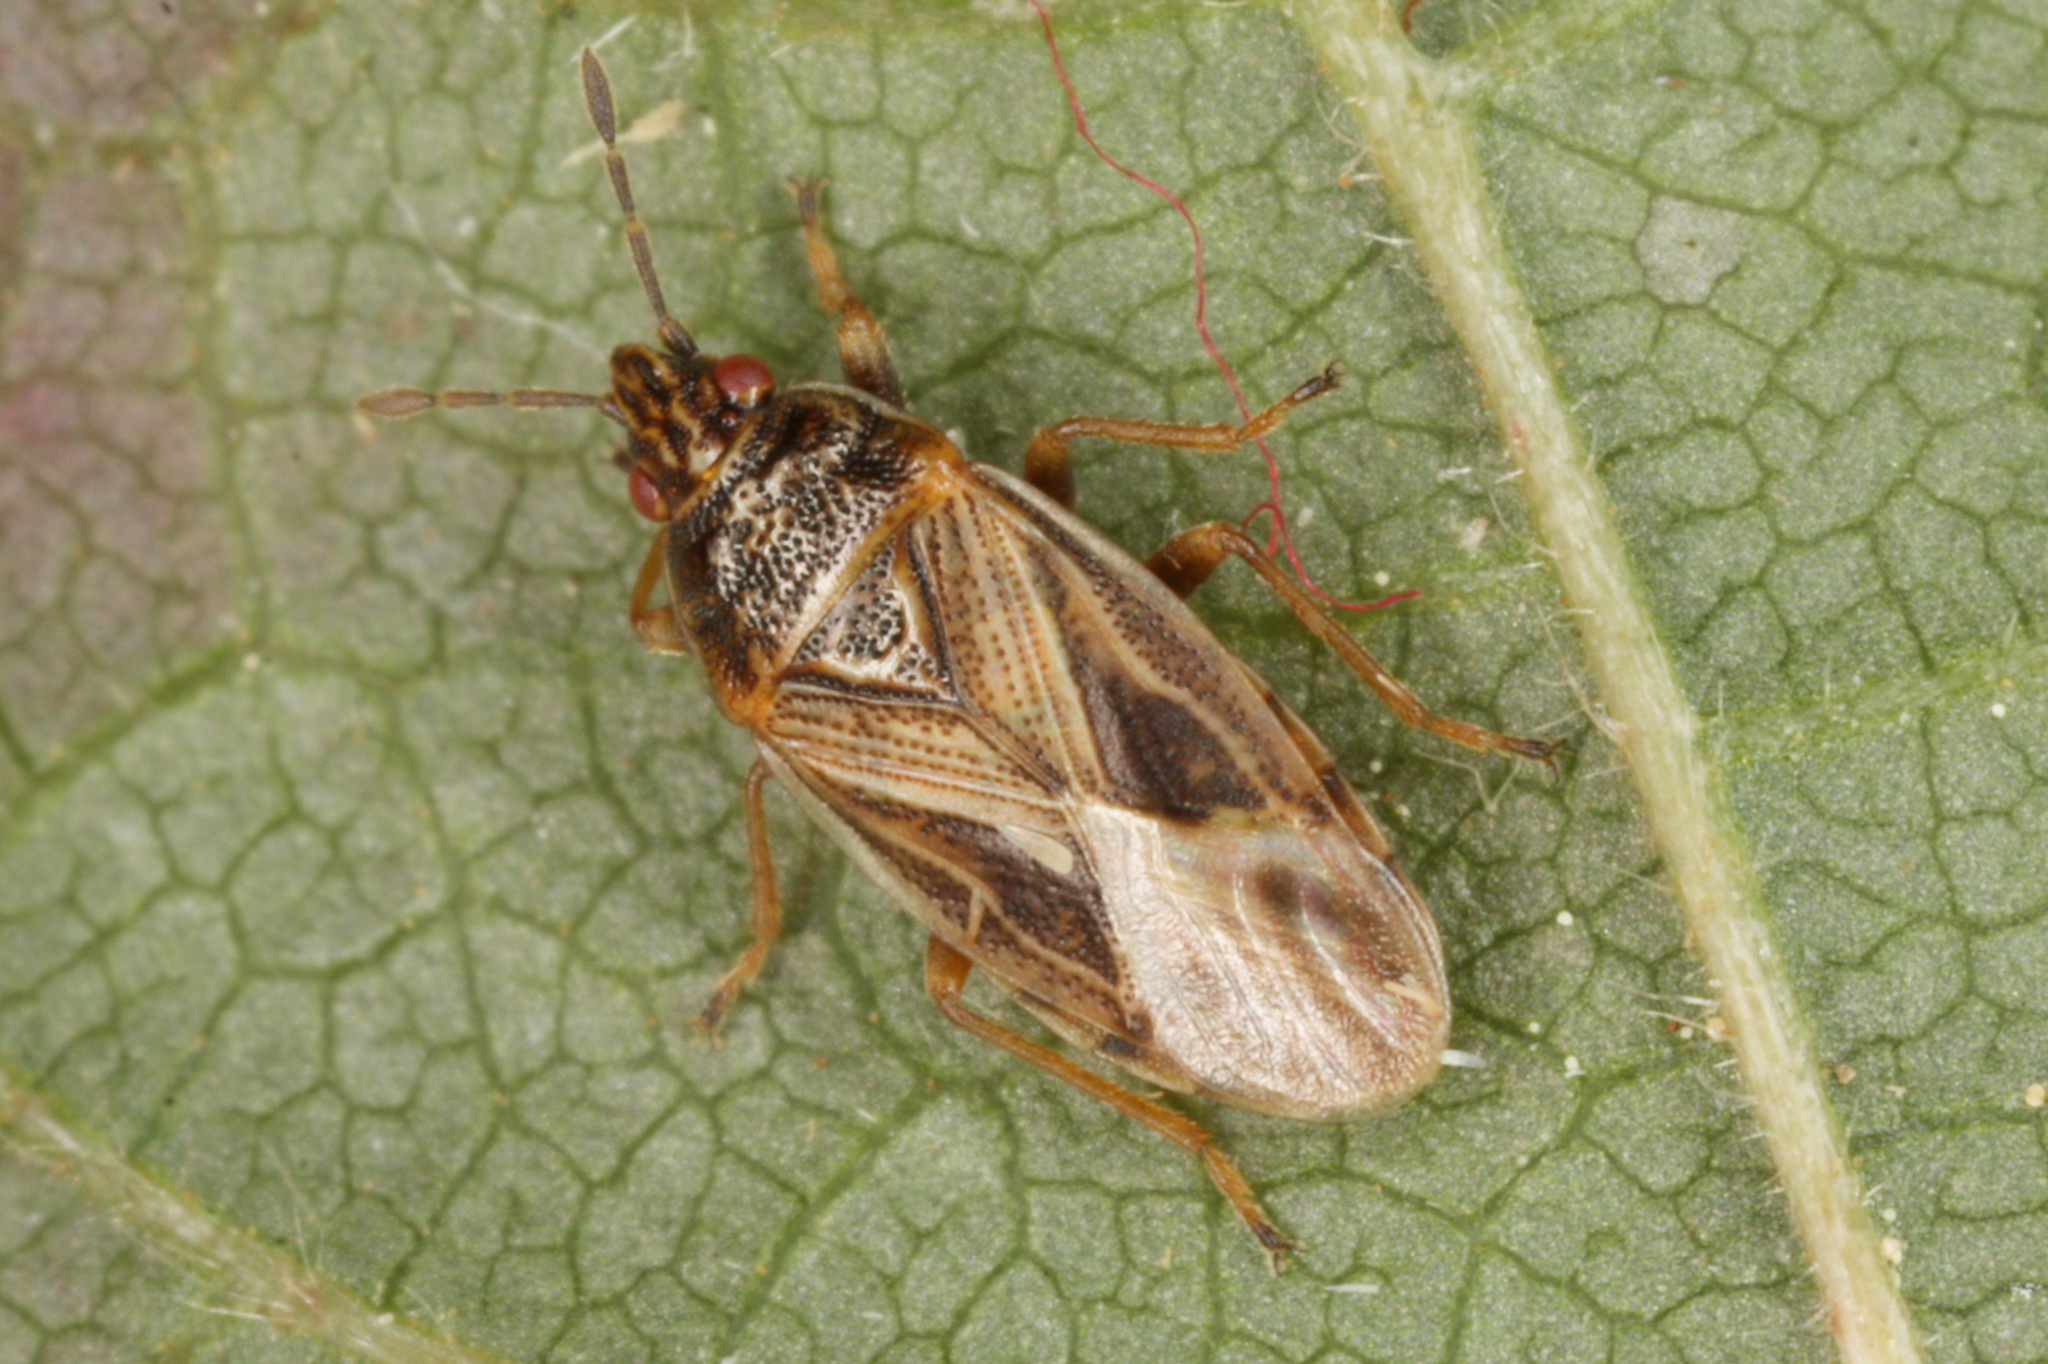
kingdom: Animalia
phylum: Arthropoda
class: Insecta
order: Hemiptera
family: Artheneidae
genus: Chilacis
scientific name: Chilacis typhae
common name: Cattail bug
